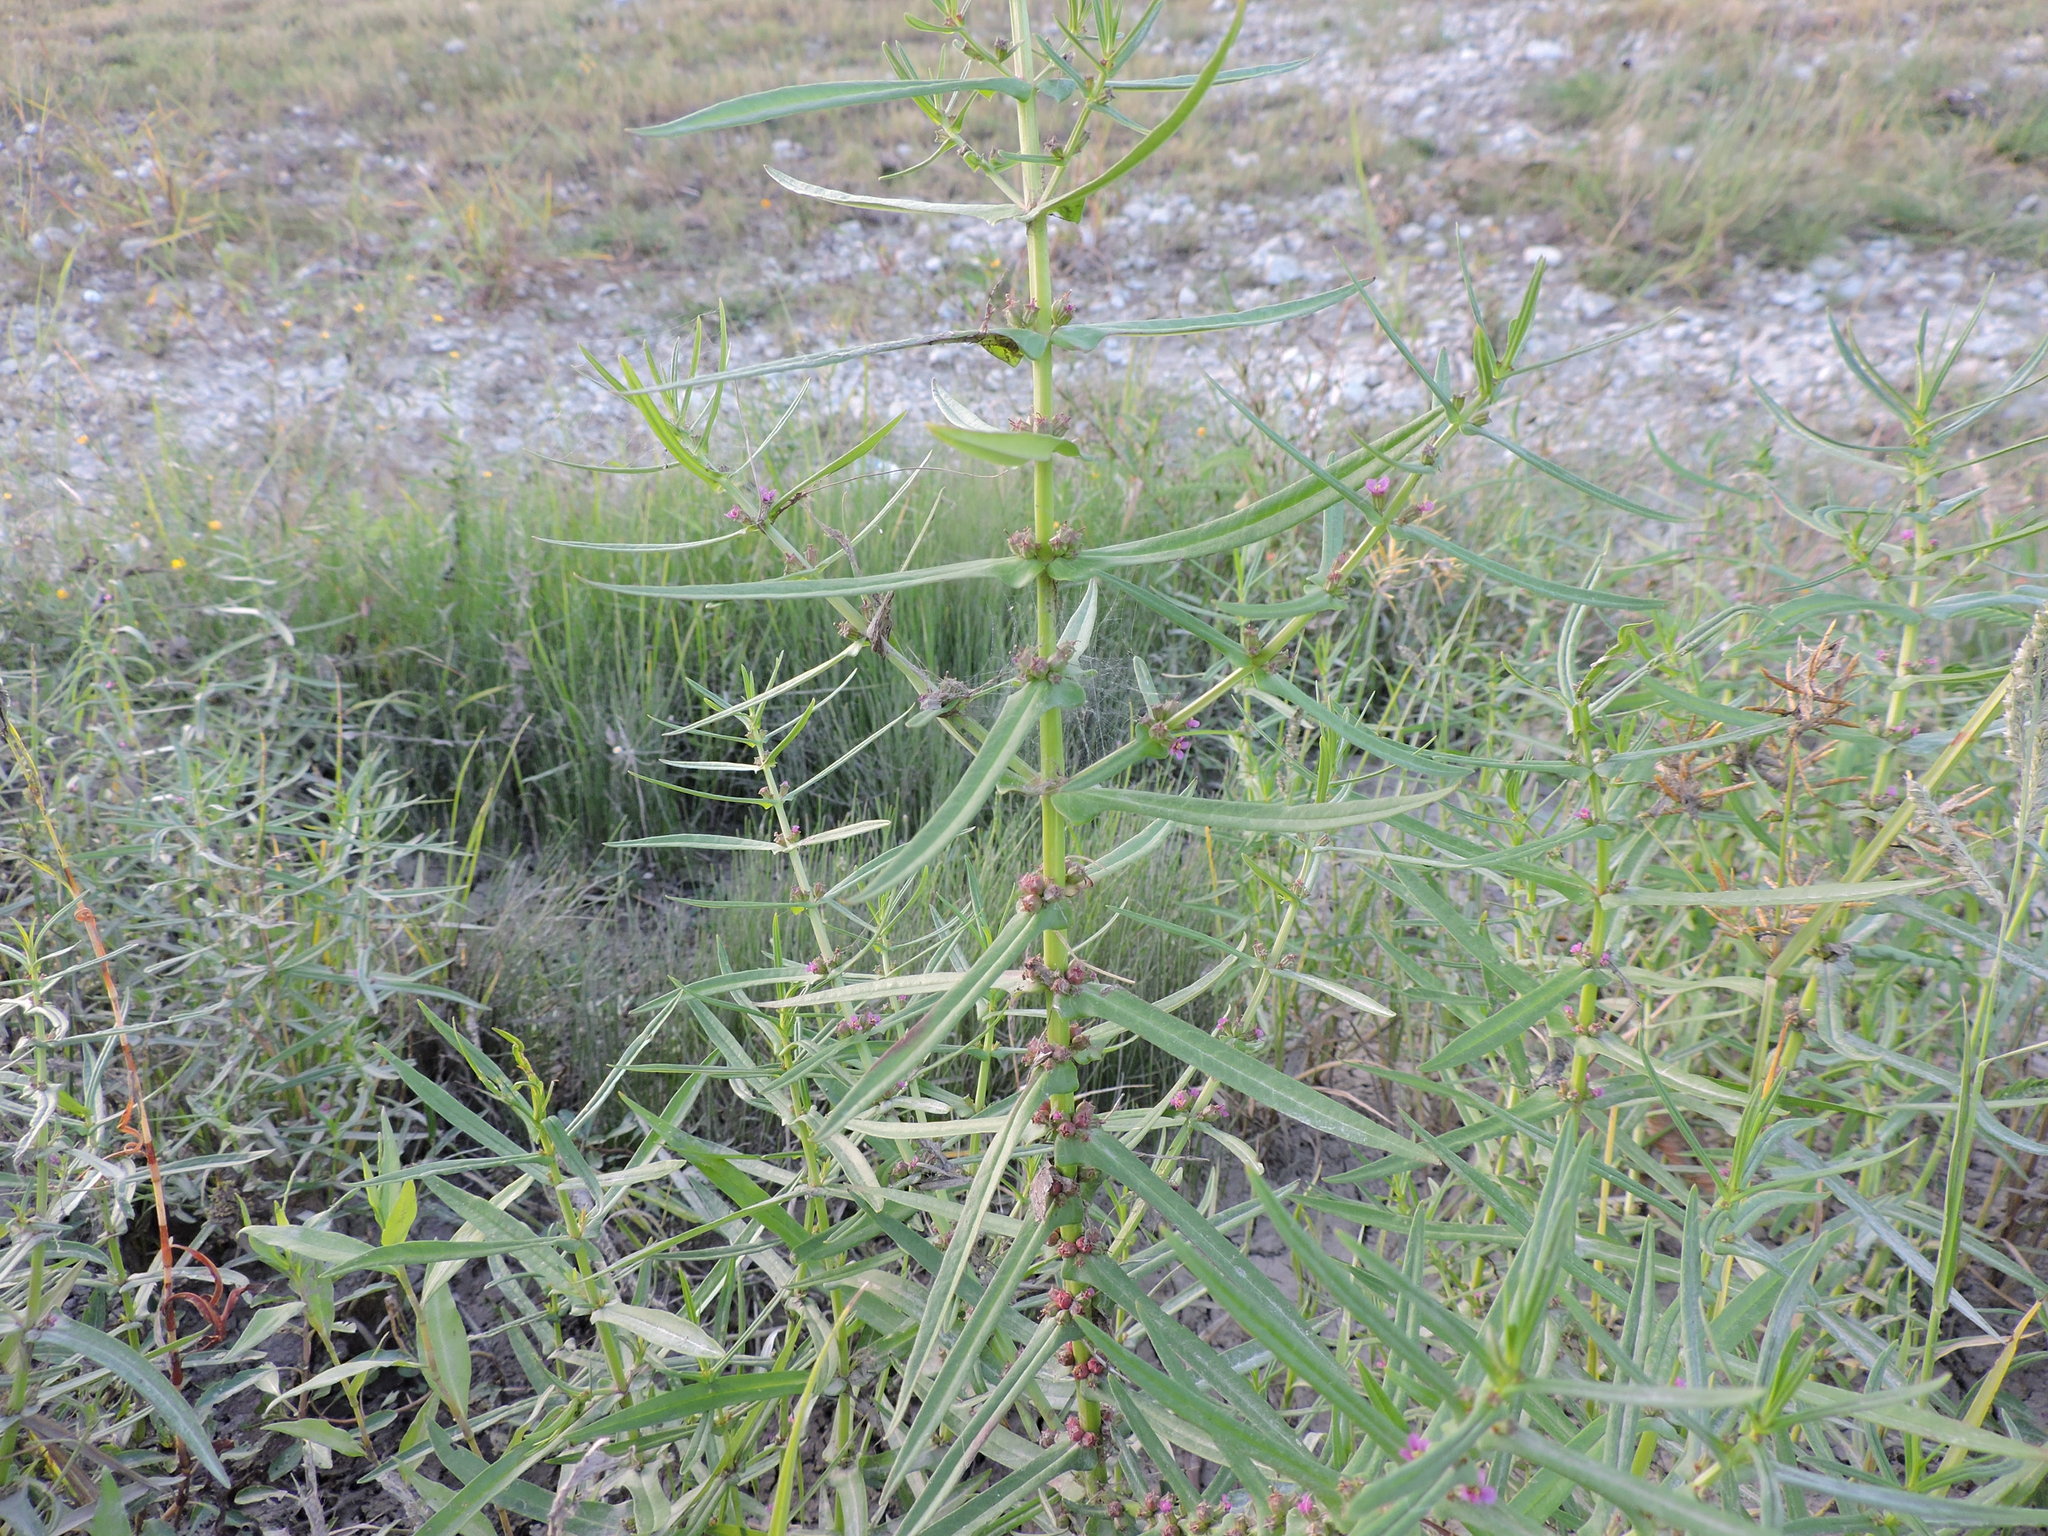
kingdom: Plantae
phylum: Tracheophyta
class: Magnoliopsida
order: Myrtales
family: Lythraceae
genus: Ammannia
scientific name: Ammannia coccinea
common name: Valley redstem
